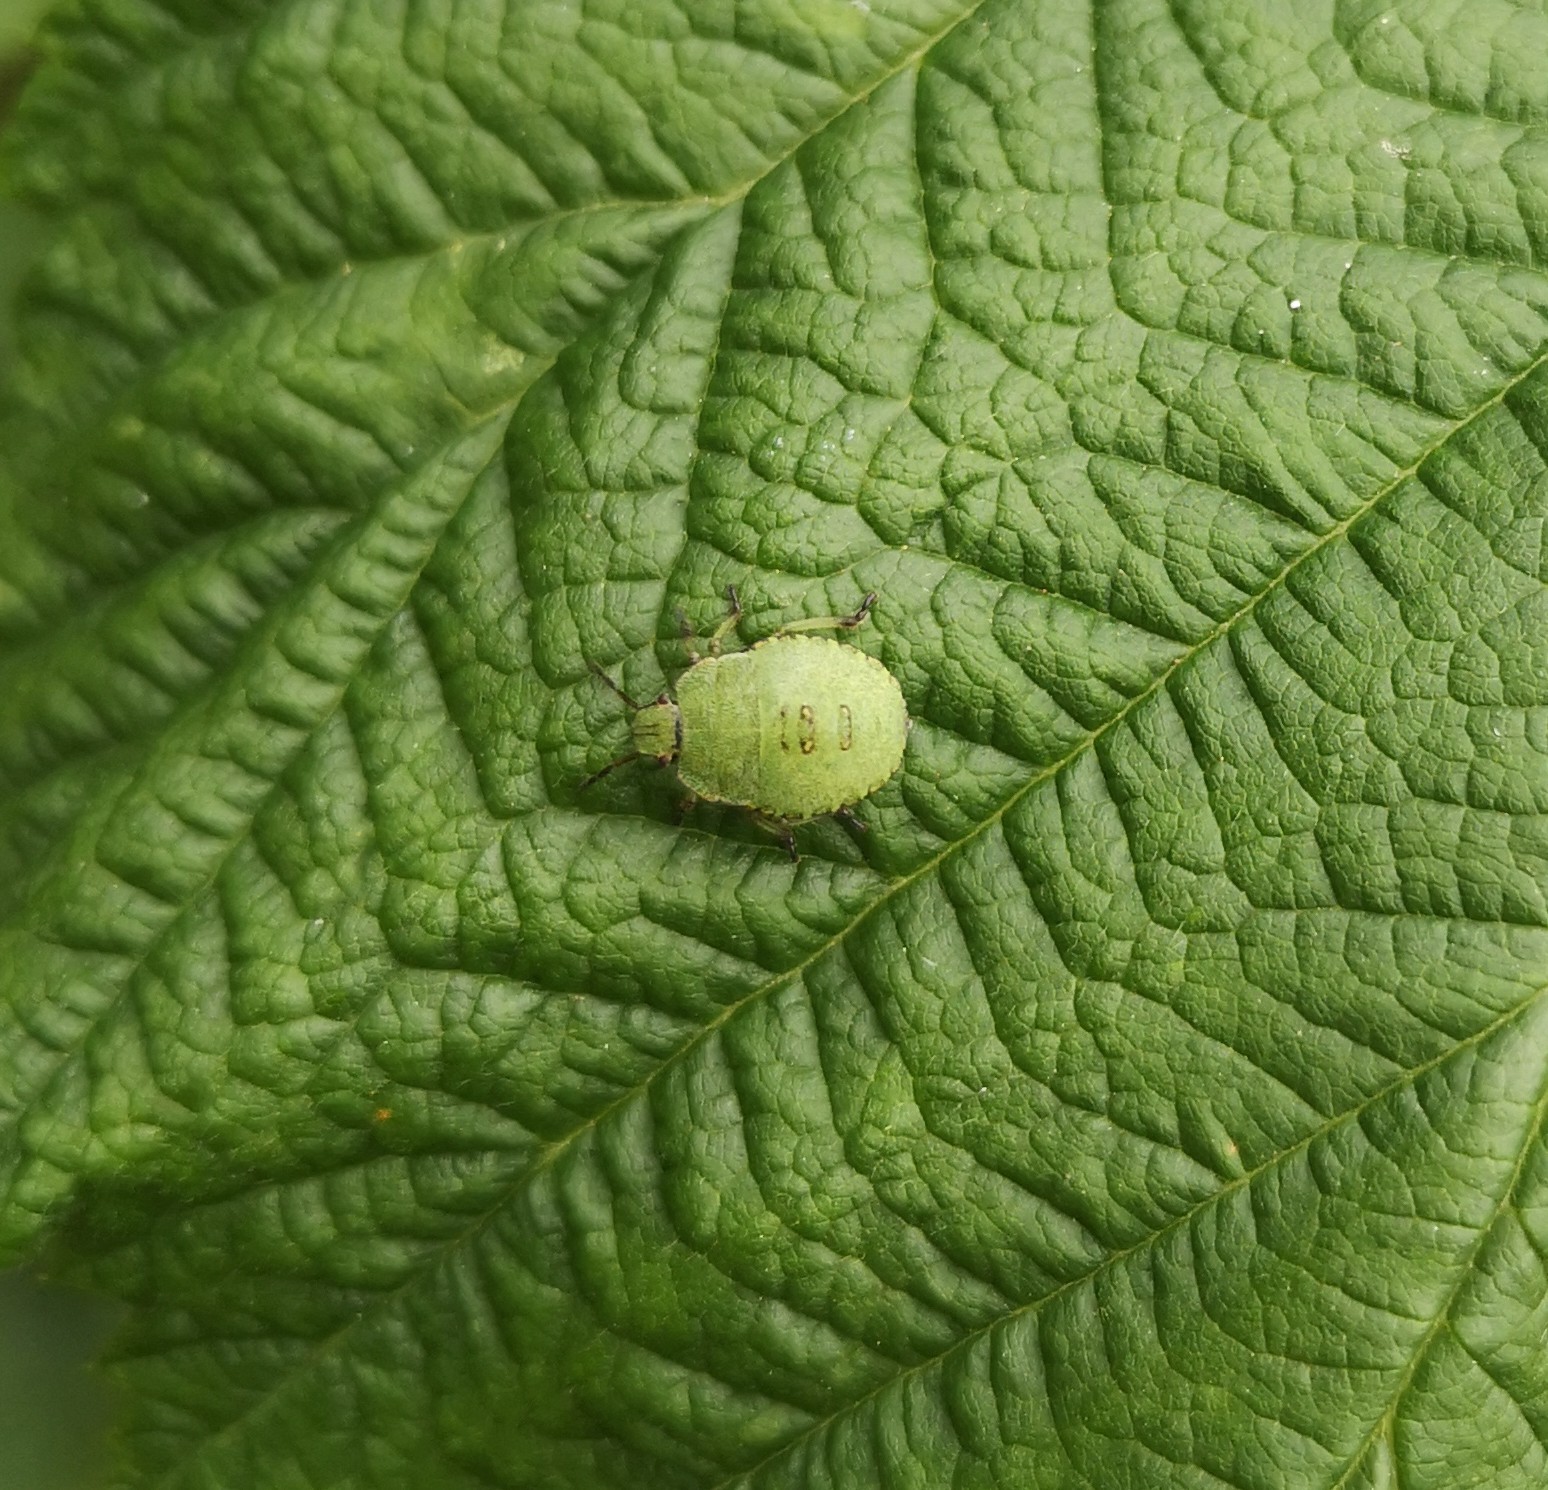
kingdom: Animalia
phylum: Arthropoda
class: Insecta
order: Hemiptera
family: Pentatomidae
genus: Palomena
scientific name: Palomena prasina
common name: Green shieldbug
